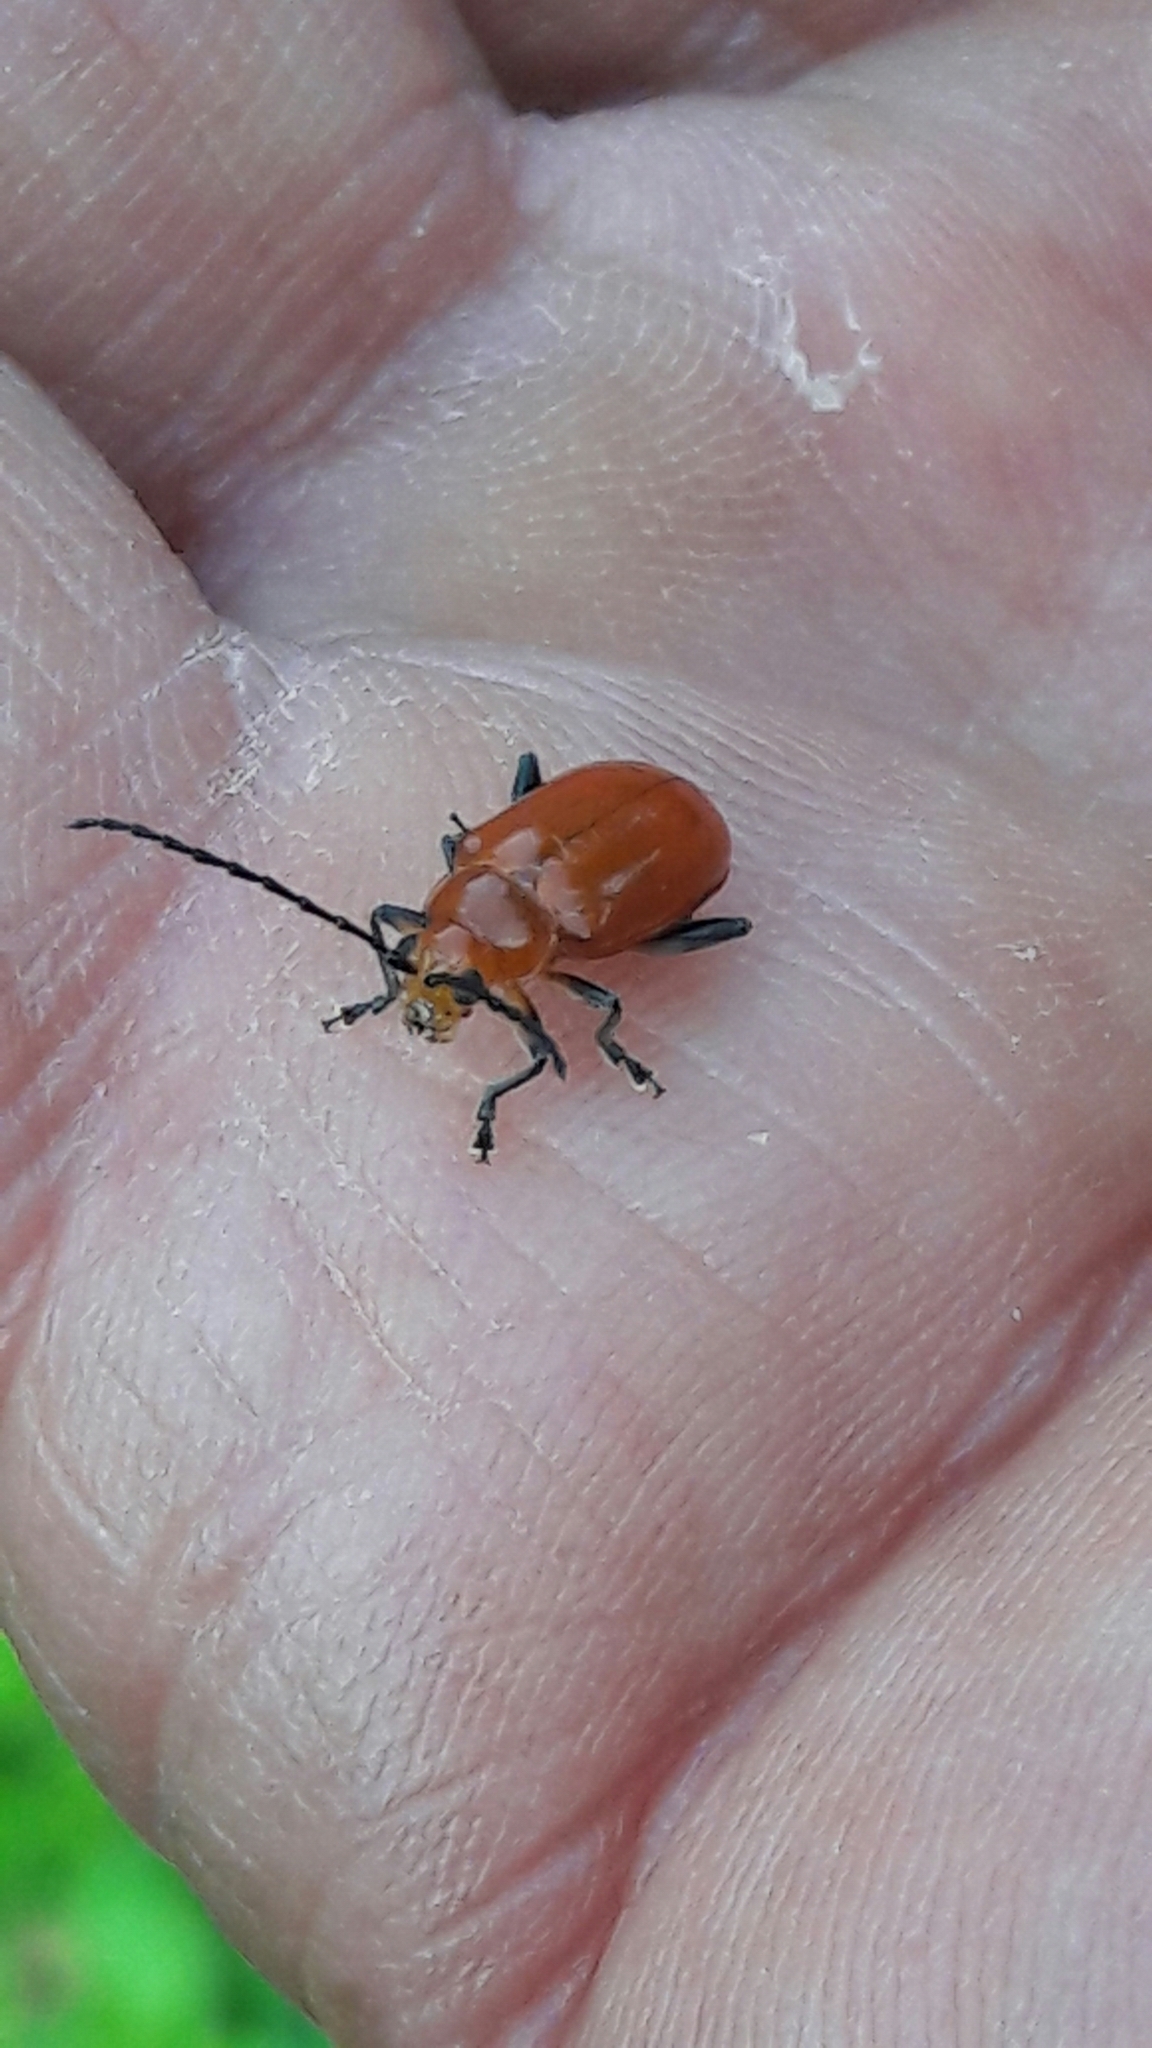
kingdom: Animalia
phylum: Arthropoda
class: Insecta
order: Coleoptera
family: Chrysomelidae
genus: Platiprosopus
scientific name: Platiprosopus
